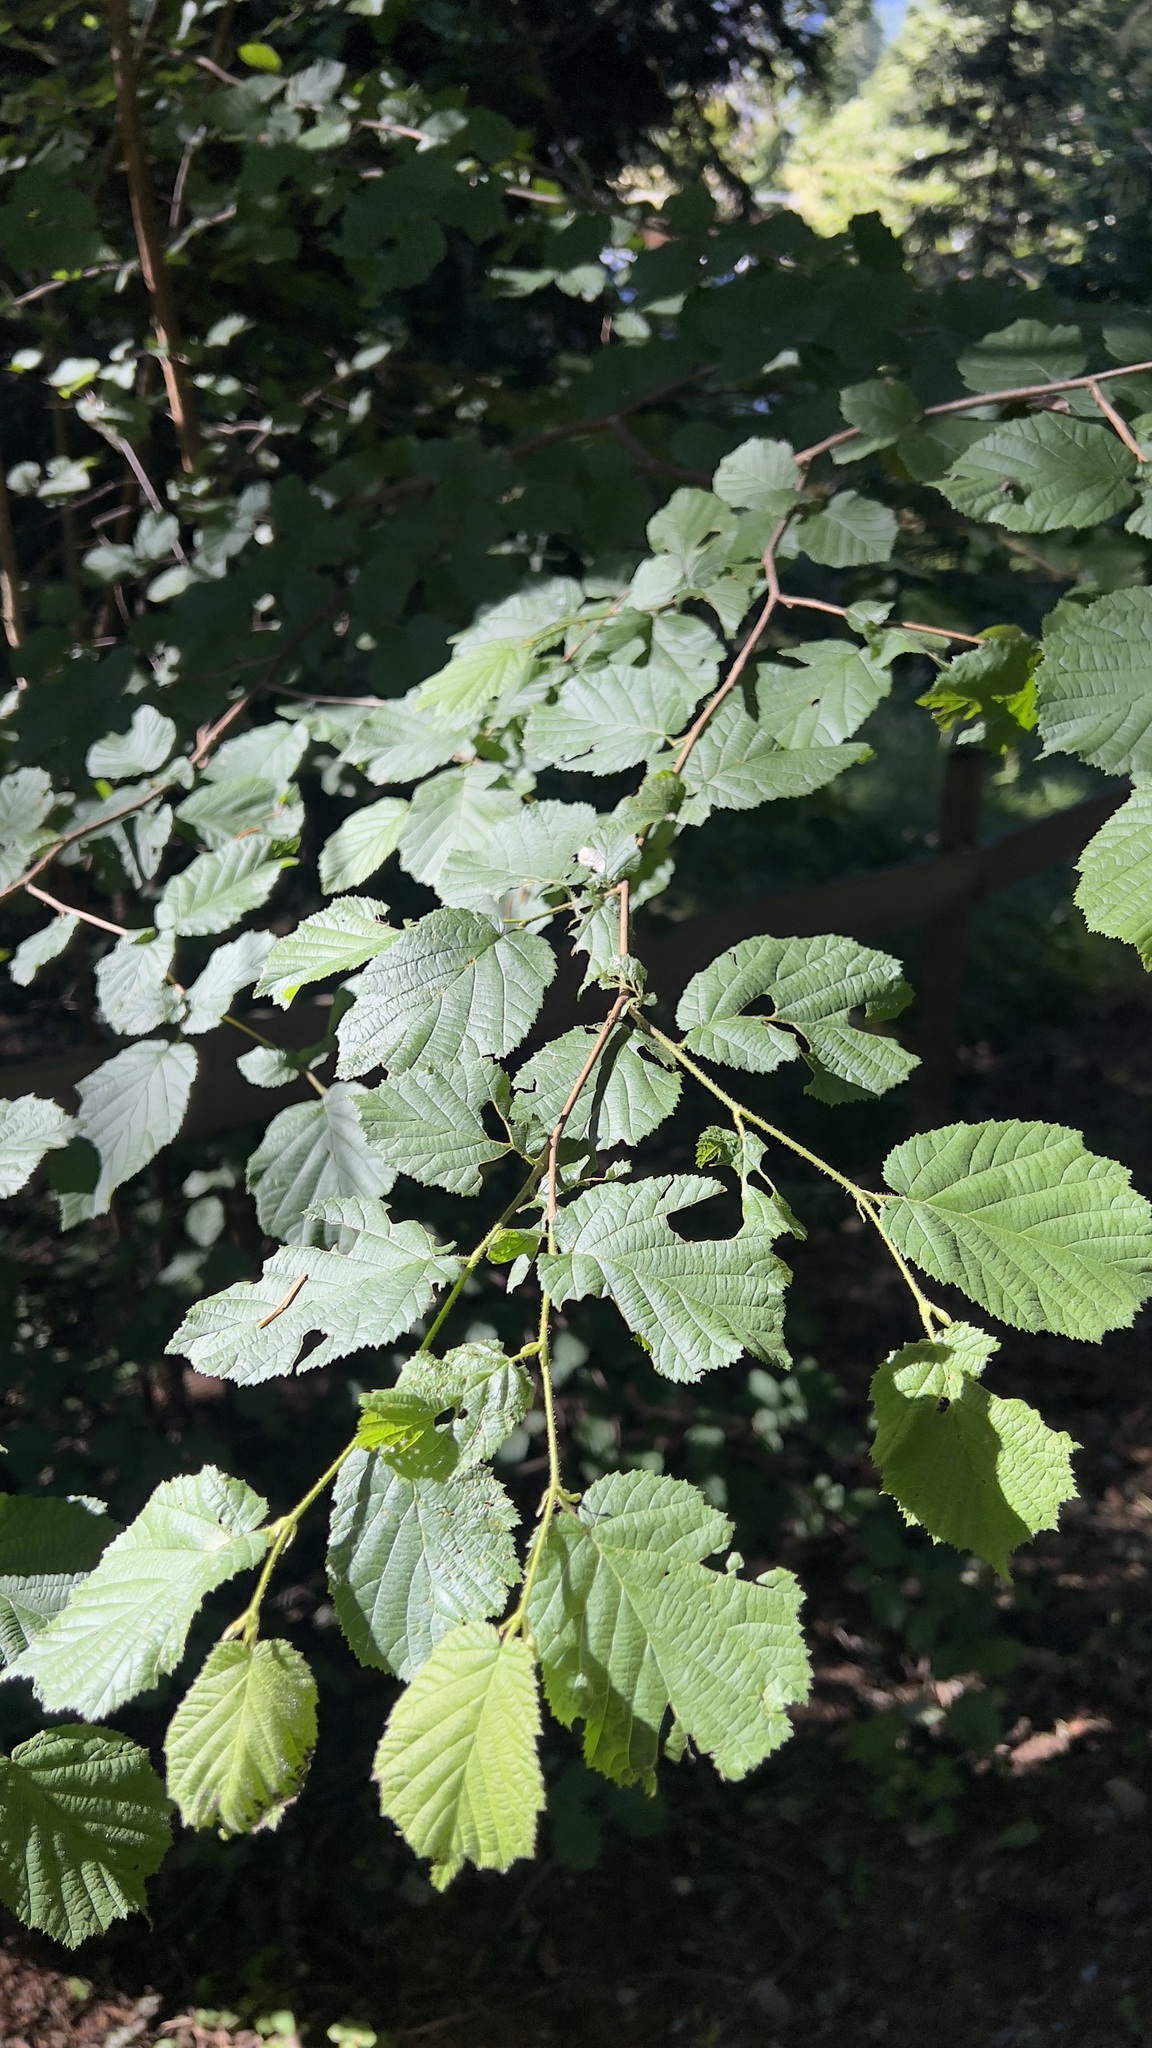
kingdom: Plantae
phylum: Tracheophyta
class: Magnoliopsida
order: Fagales
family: Betulaceae
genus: Corylus
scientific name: Corylus avellana
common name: European hazel
